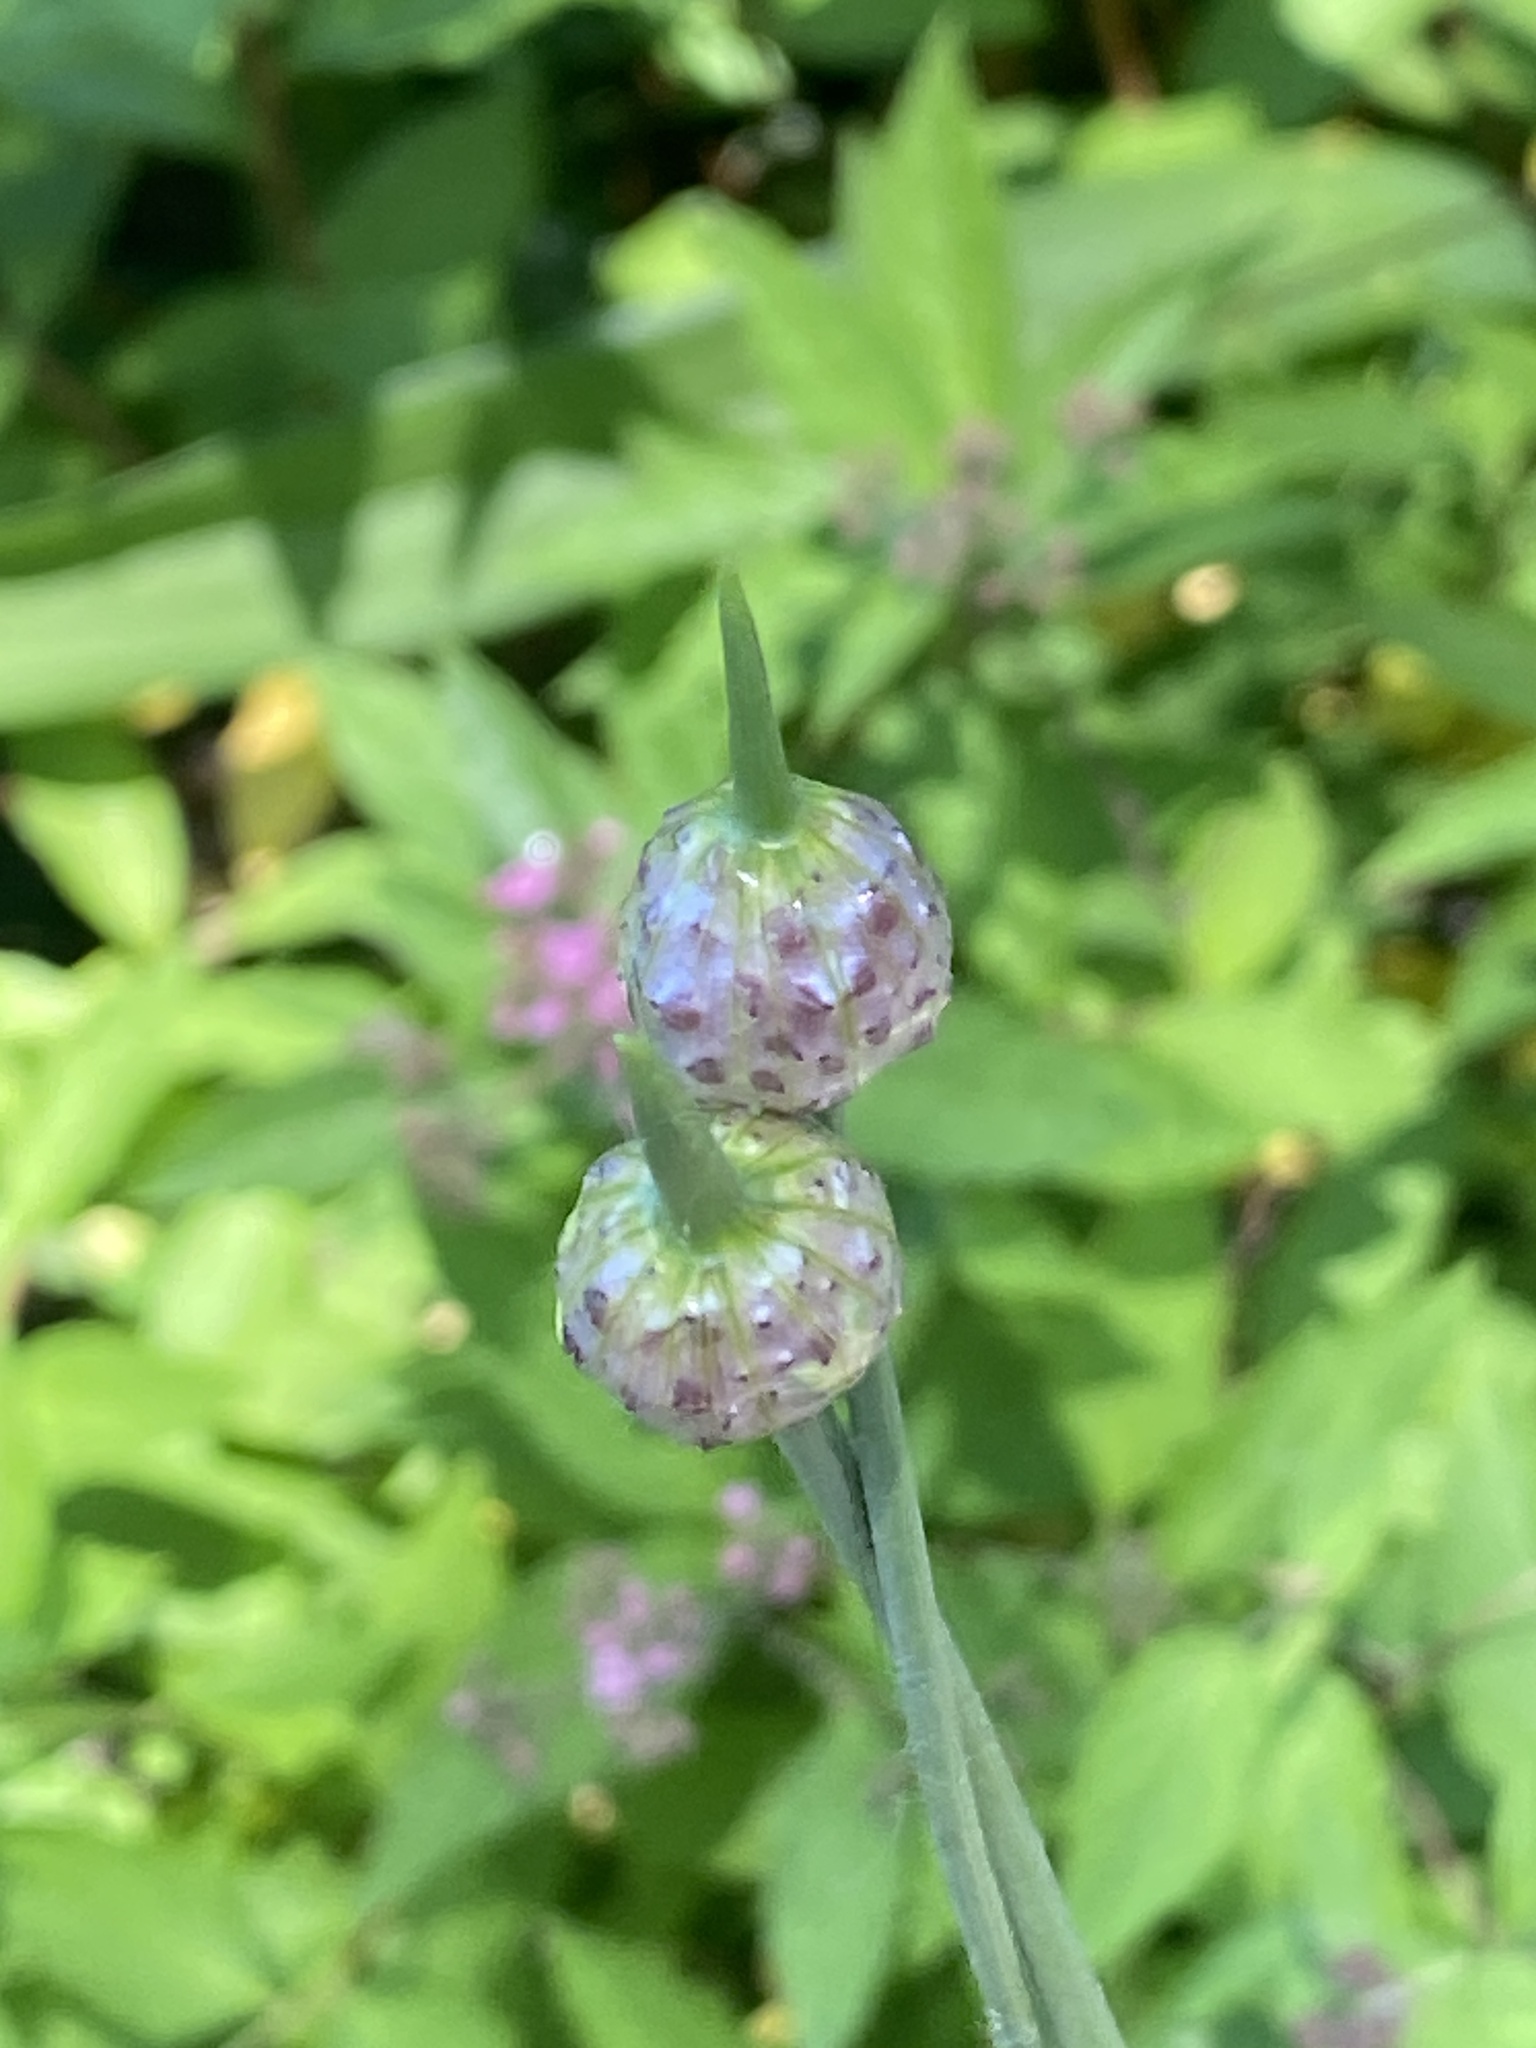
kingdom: Plantae
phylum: Tracheophyta
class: Liliopsida
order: Asparagales
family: Amaryllidaceae
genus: Allium
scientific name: Allium vineale
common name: Crow garlic
